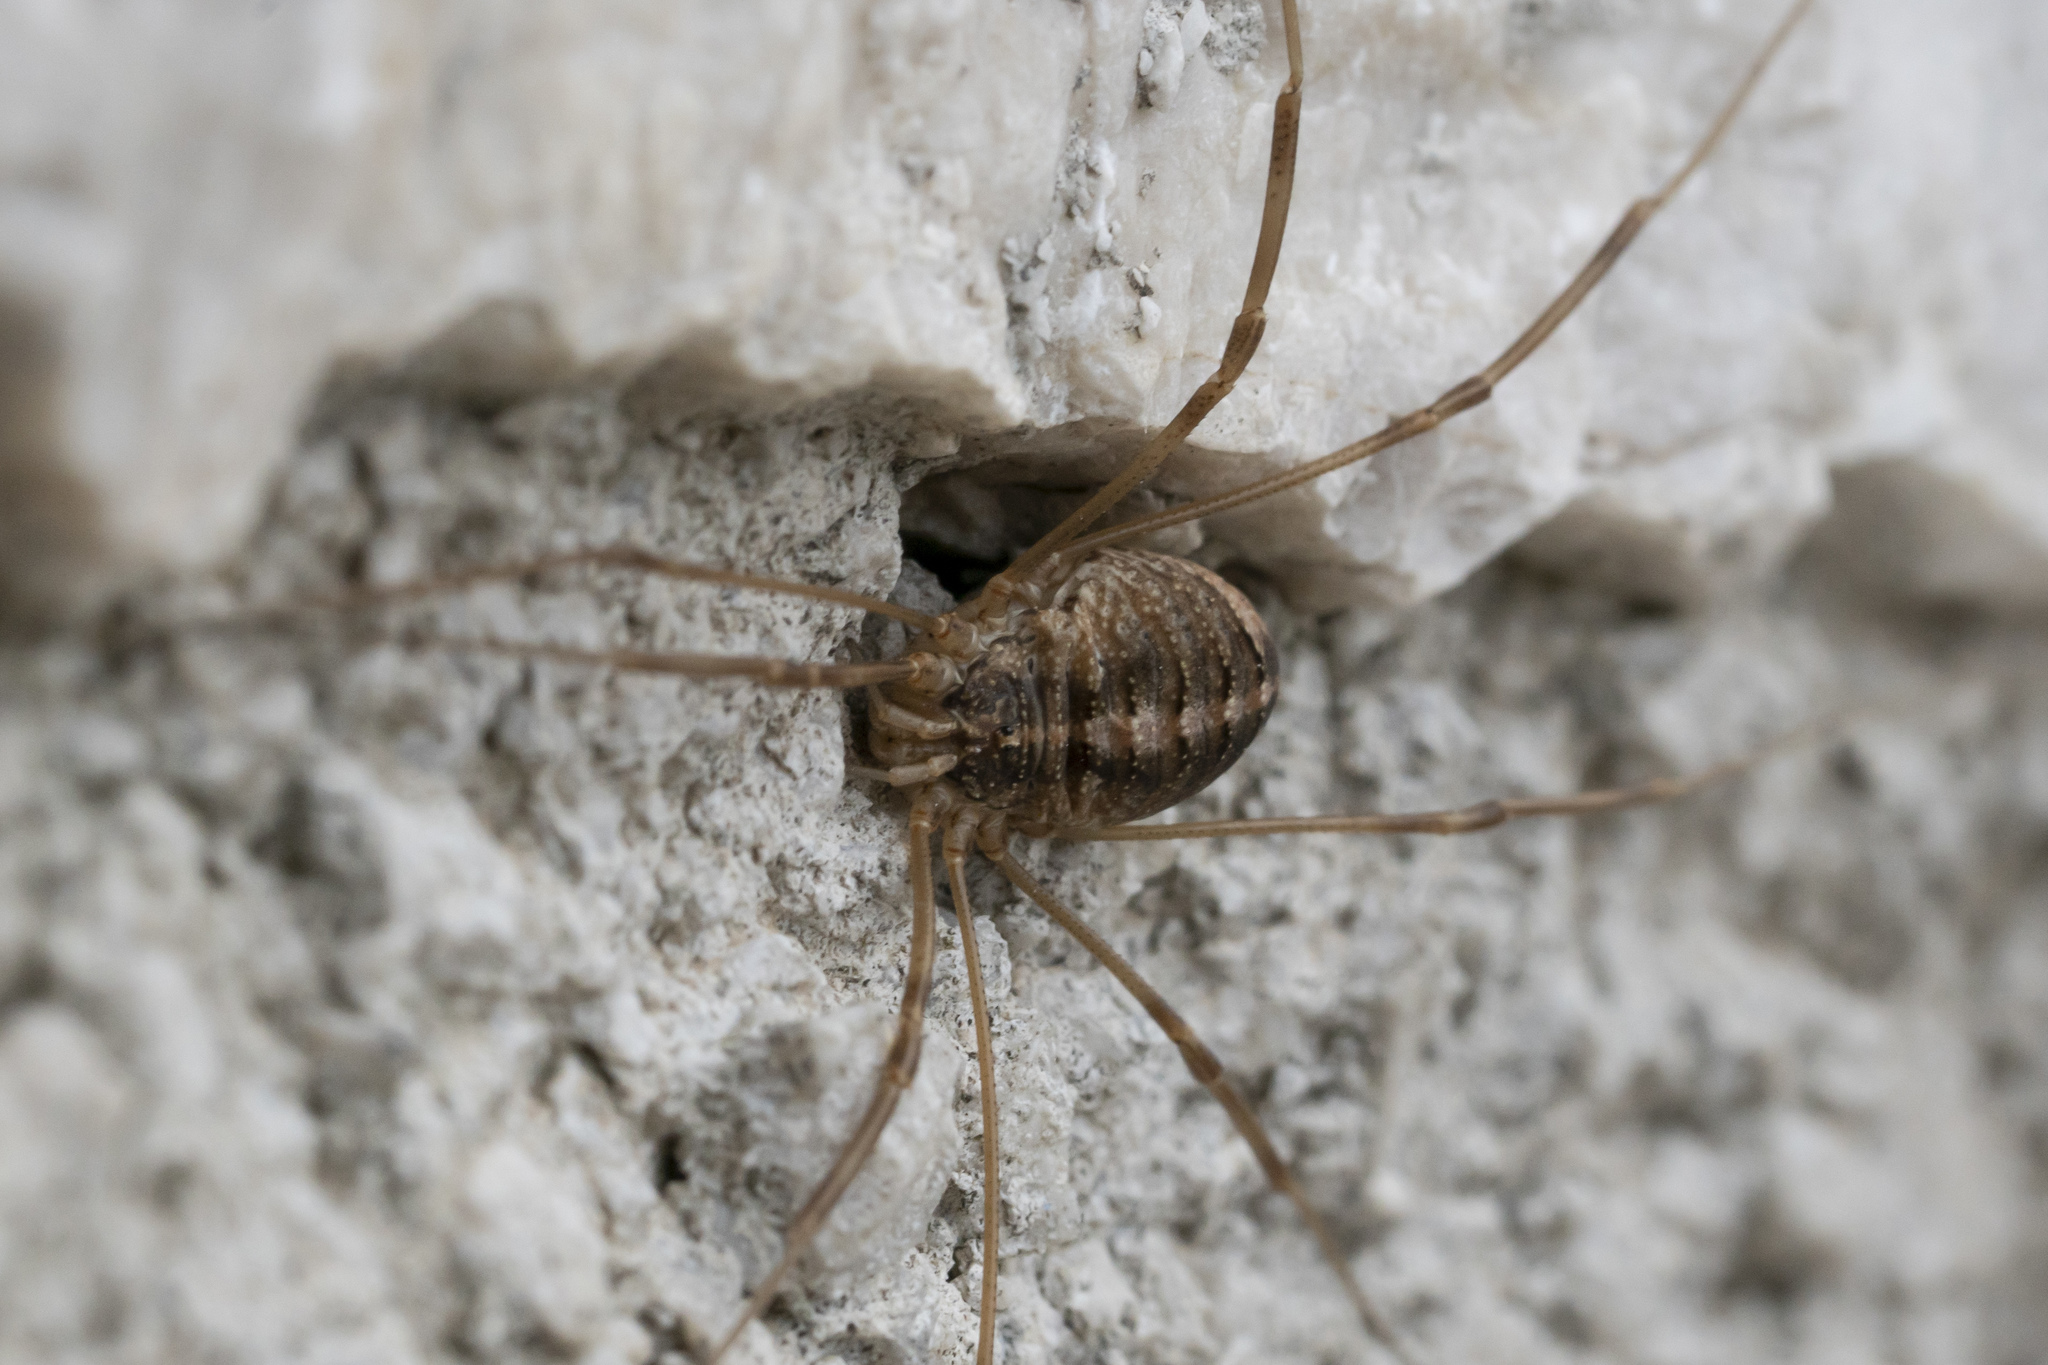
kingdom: Animalia
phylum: Arthropoda
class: Arachnida
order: Opiliones
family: Phalangiidae
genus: Opilio
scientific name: Opilio insulae
